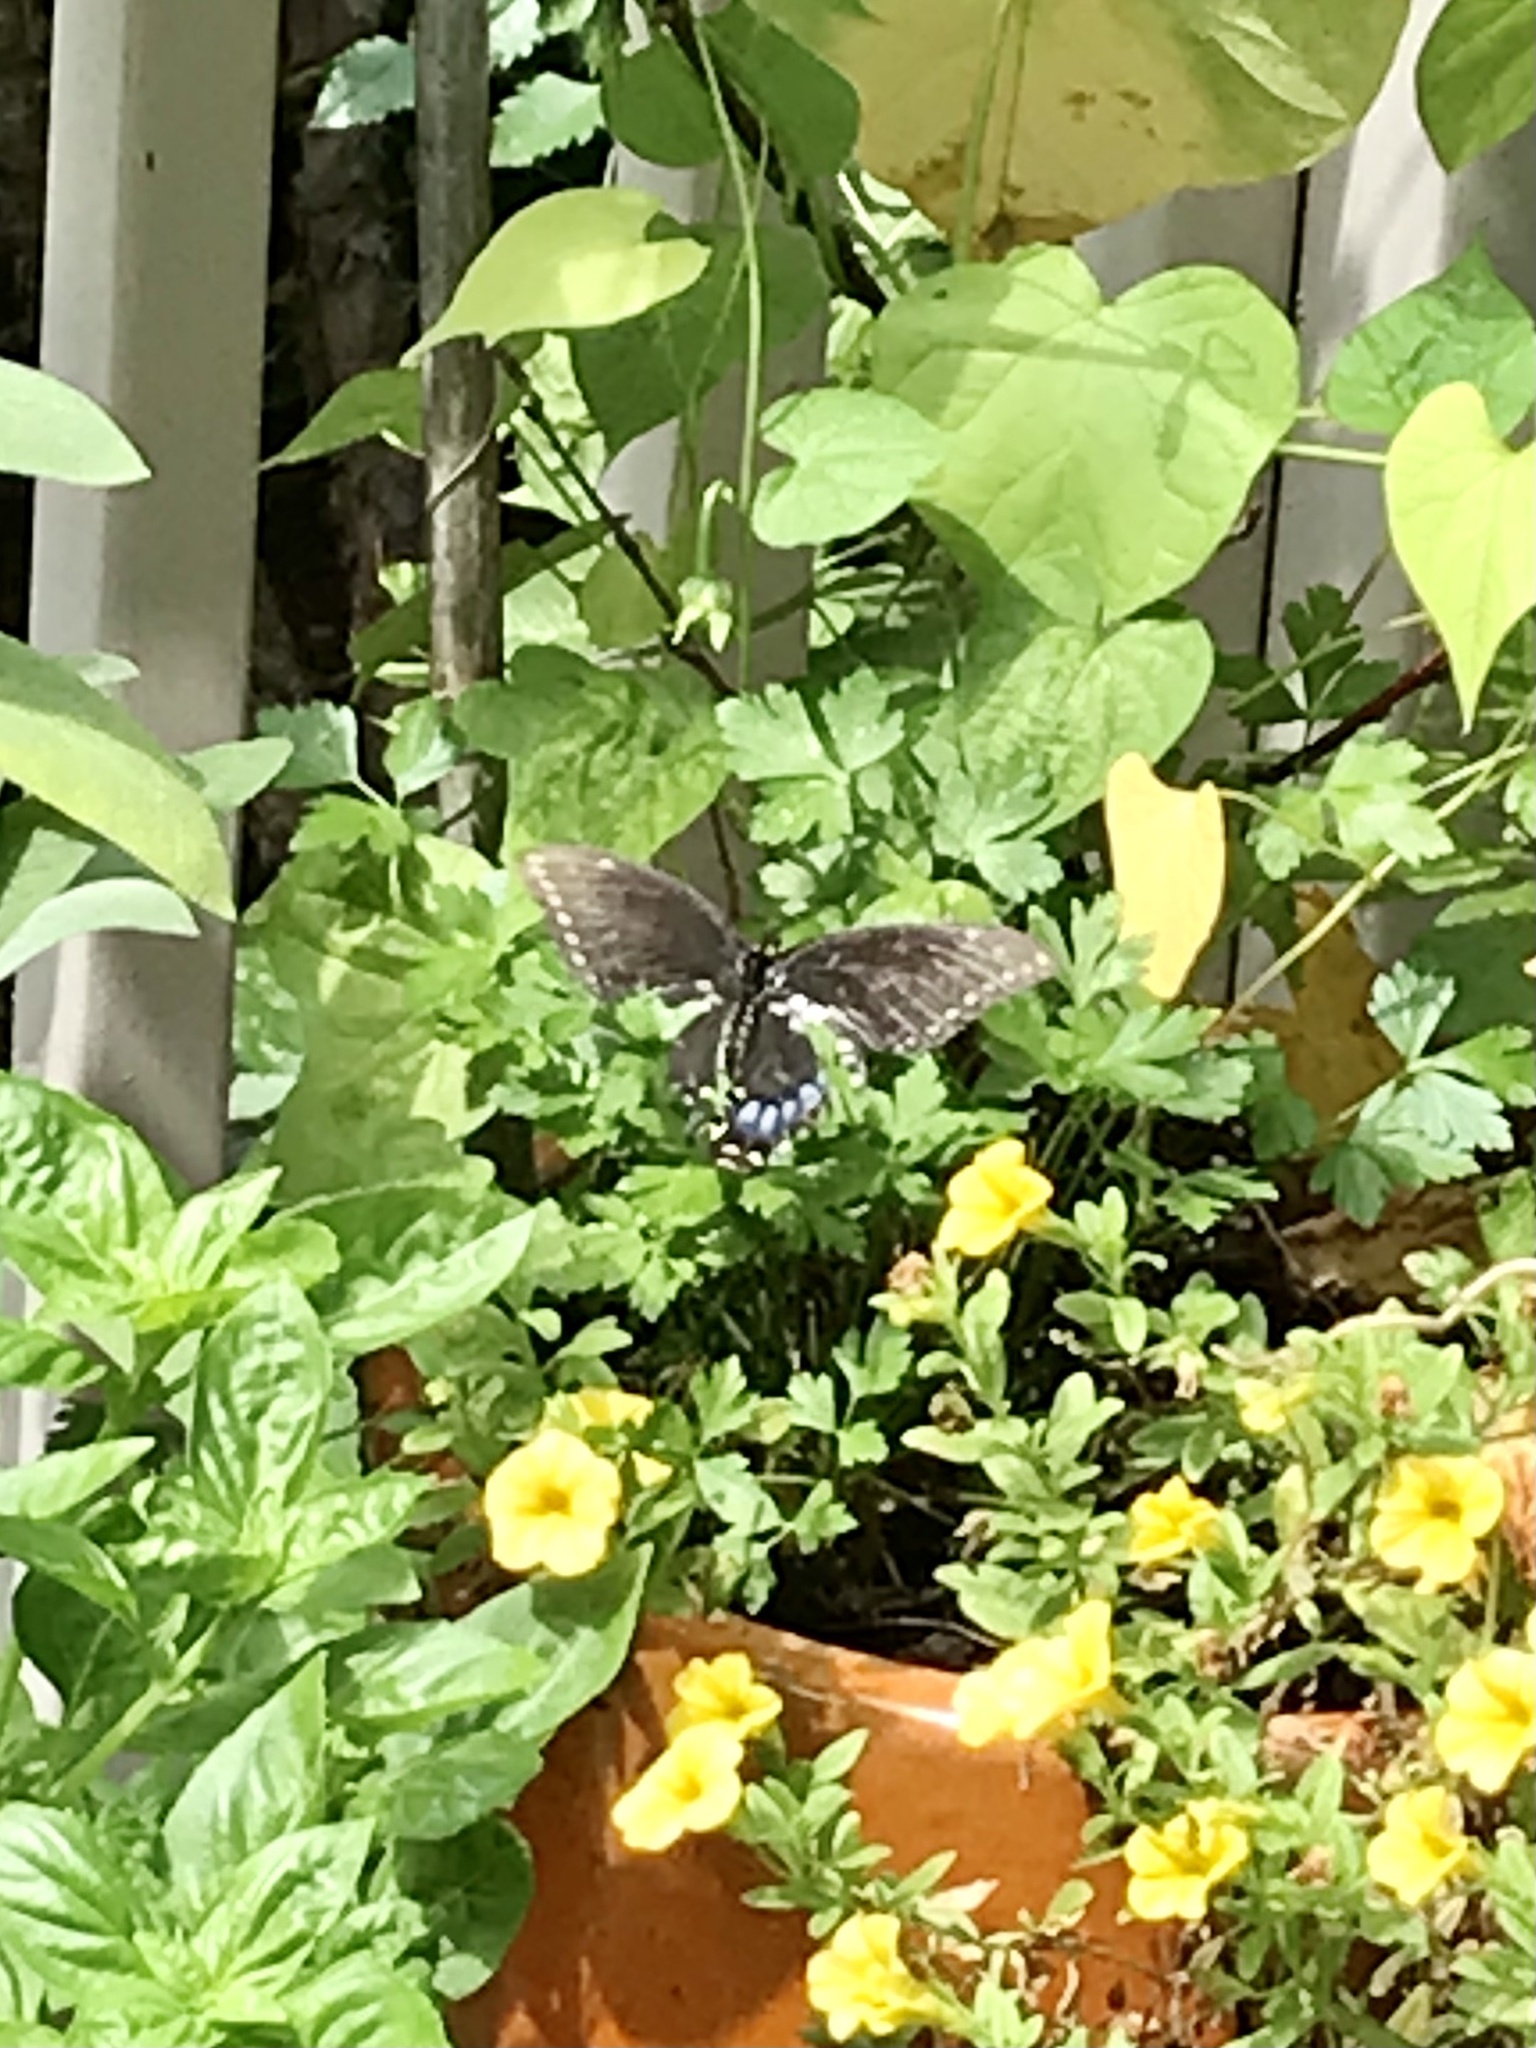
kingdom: Animalia
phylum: Arthropoda
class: Insecta
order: Lepidoptera
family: Papilionidae
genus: Papilio
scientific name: Papilio polyxenes
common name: Black swallowtail
